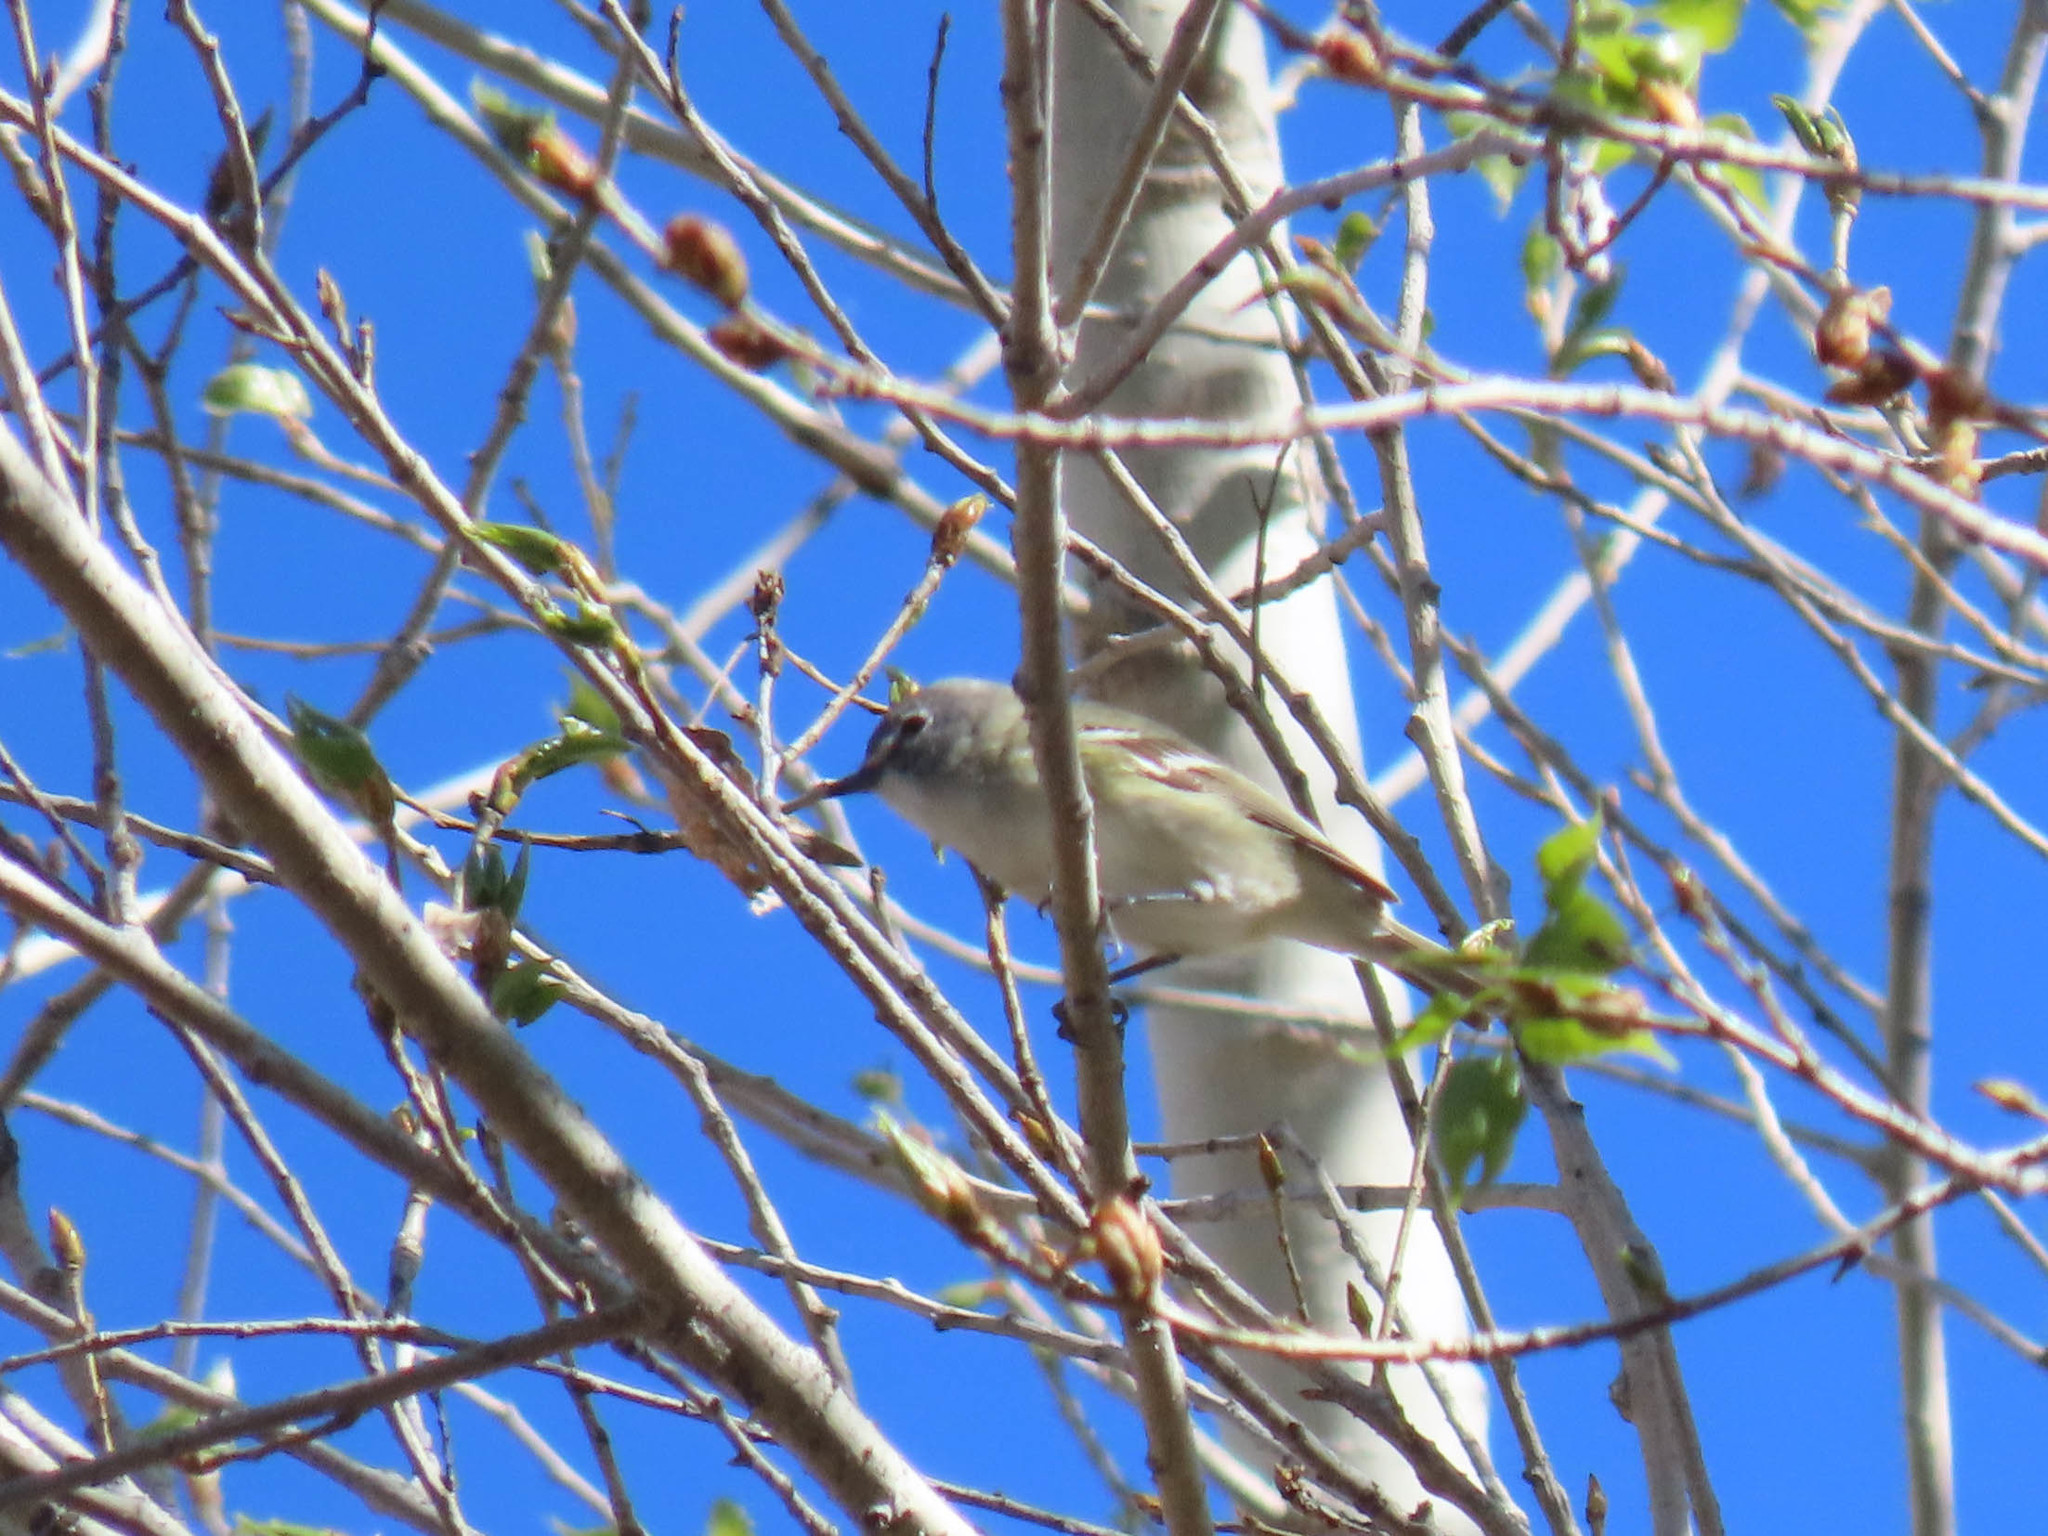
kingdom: Animalia
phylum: Chordata
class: Aves
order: Passeriformes
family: Vireonidae
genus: Vireo
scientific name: Vireo cassinii
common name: Cassin's vireo
